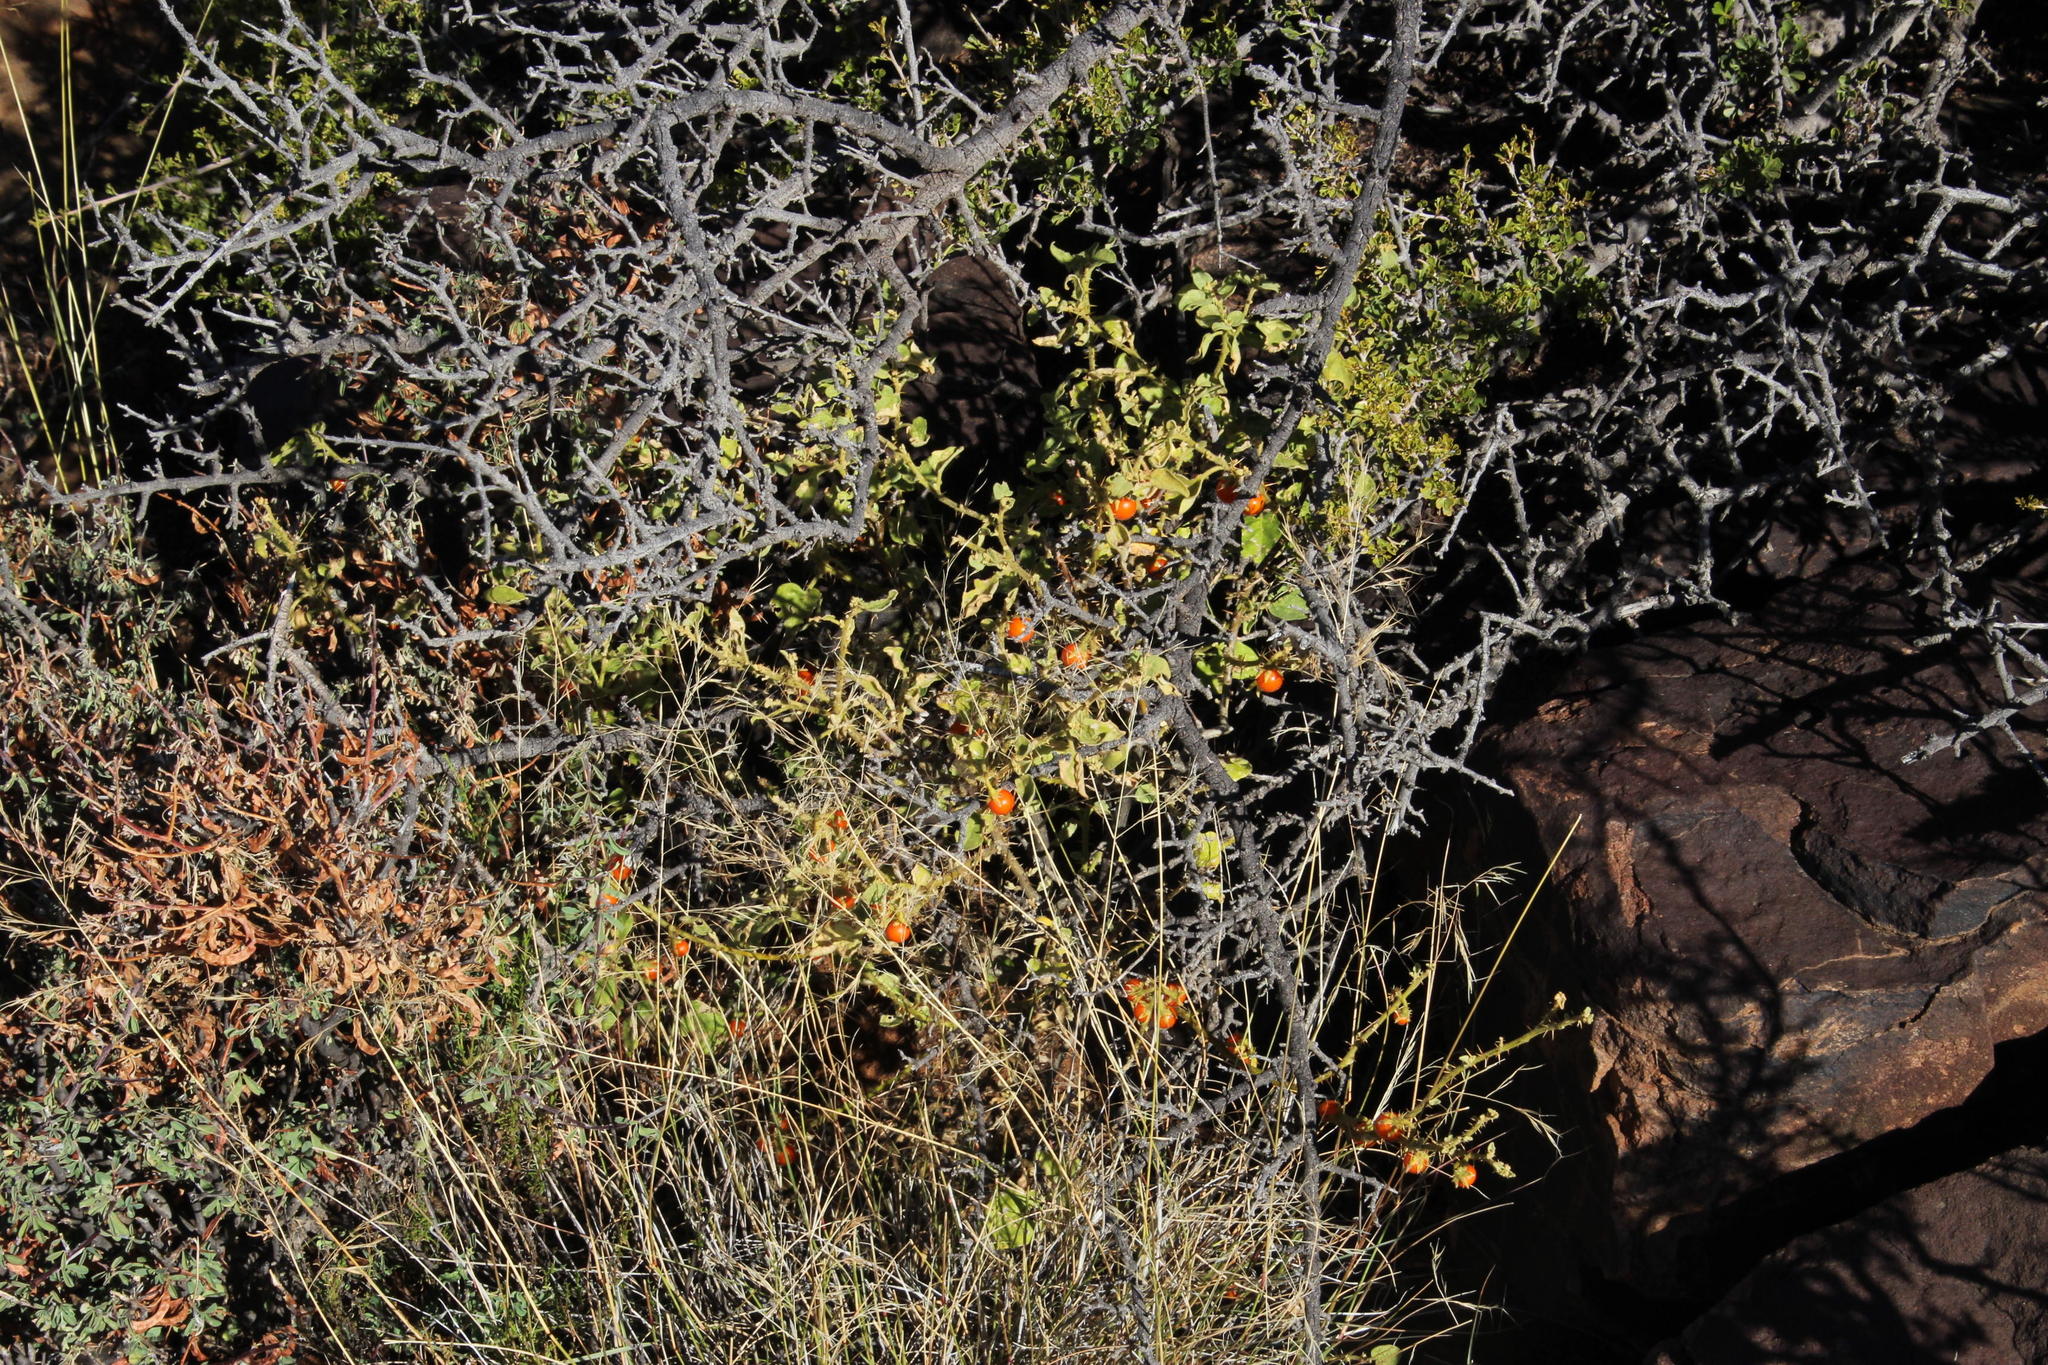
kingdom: Plantae
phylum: Tracheophyta
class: Magnoliopsida
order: Solanales
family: Solanaceae
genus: Solanum
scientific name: Solanum tomentosum
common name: Wild aubergine
